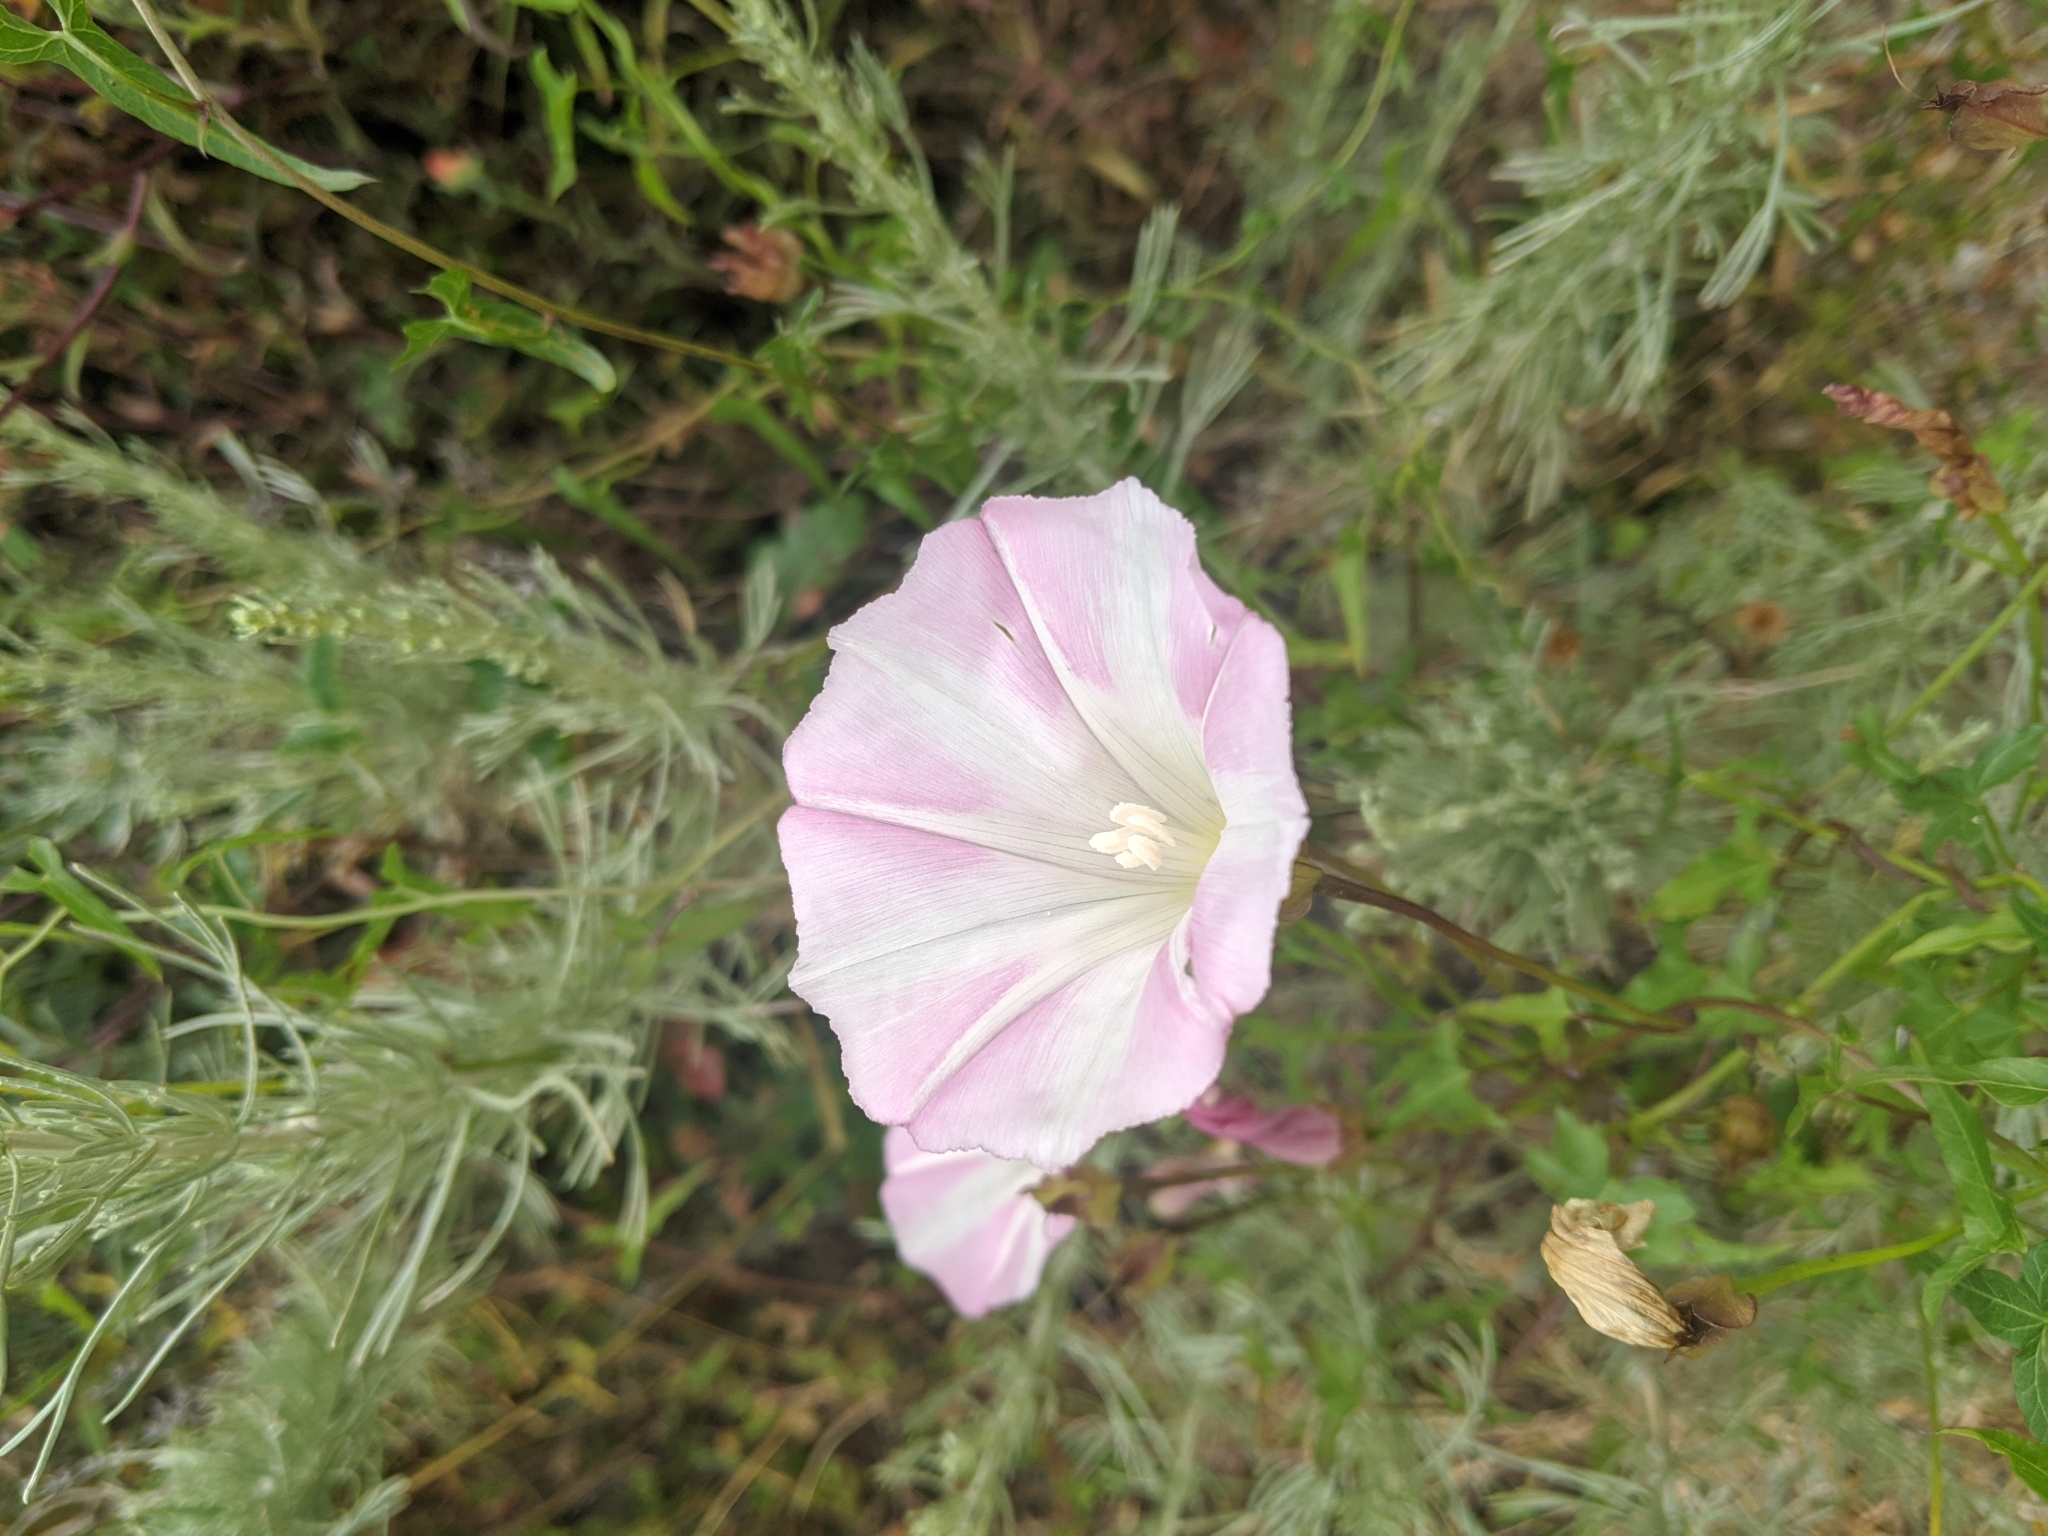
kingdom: Plantae
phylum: Tracheophyta
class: Magnoliopsida
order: Solanales
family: Convolvulaceae
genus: Calystegia
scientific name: Calystegia macrostegia
